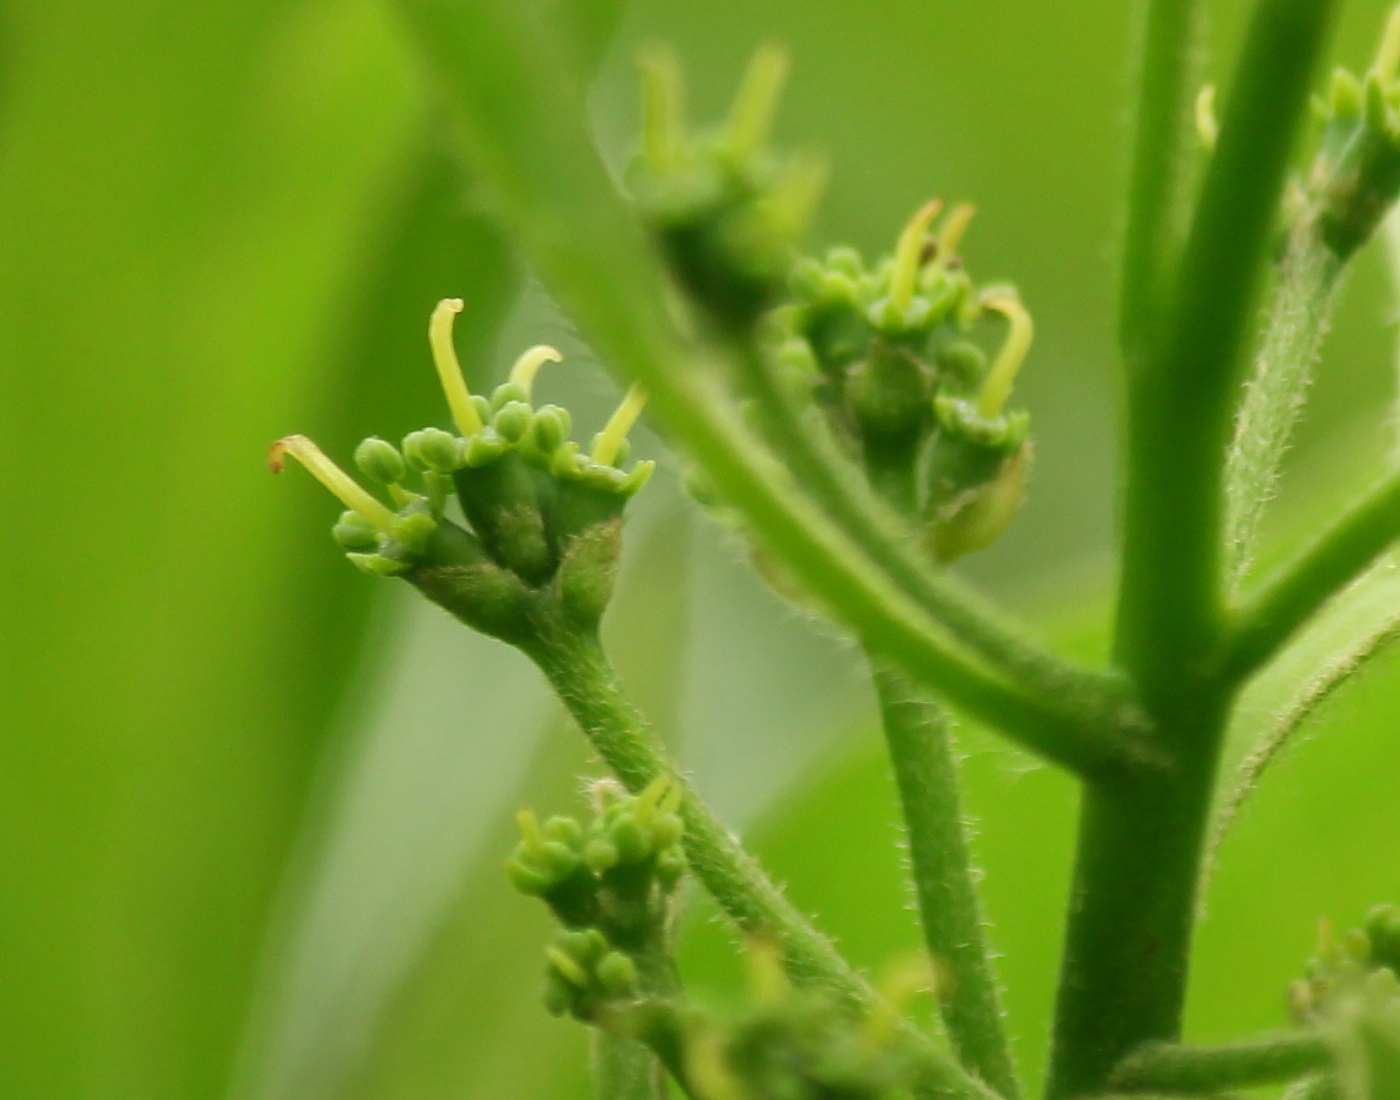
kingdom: Plantae
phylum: Tracheophyta
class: Magnoliopsida
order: Cornales
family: Nyssaceae
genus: Nyssa
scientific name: Nyssa sylvatica
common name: Black tupelo
